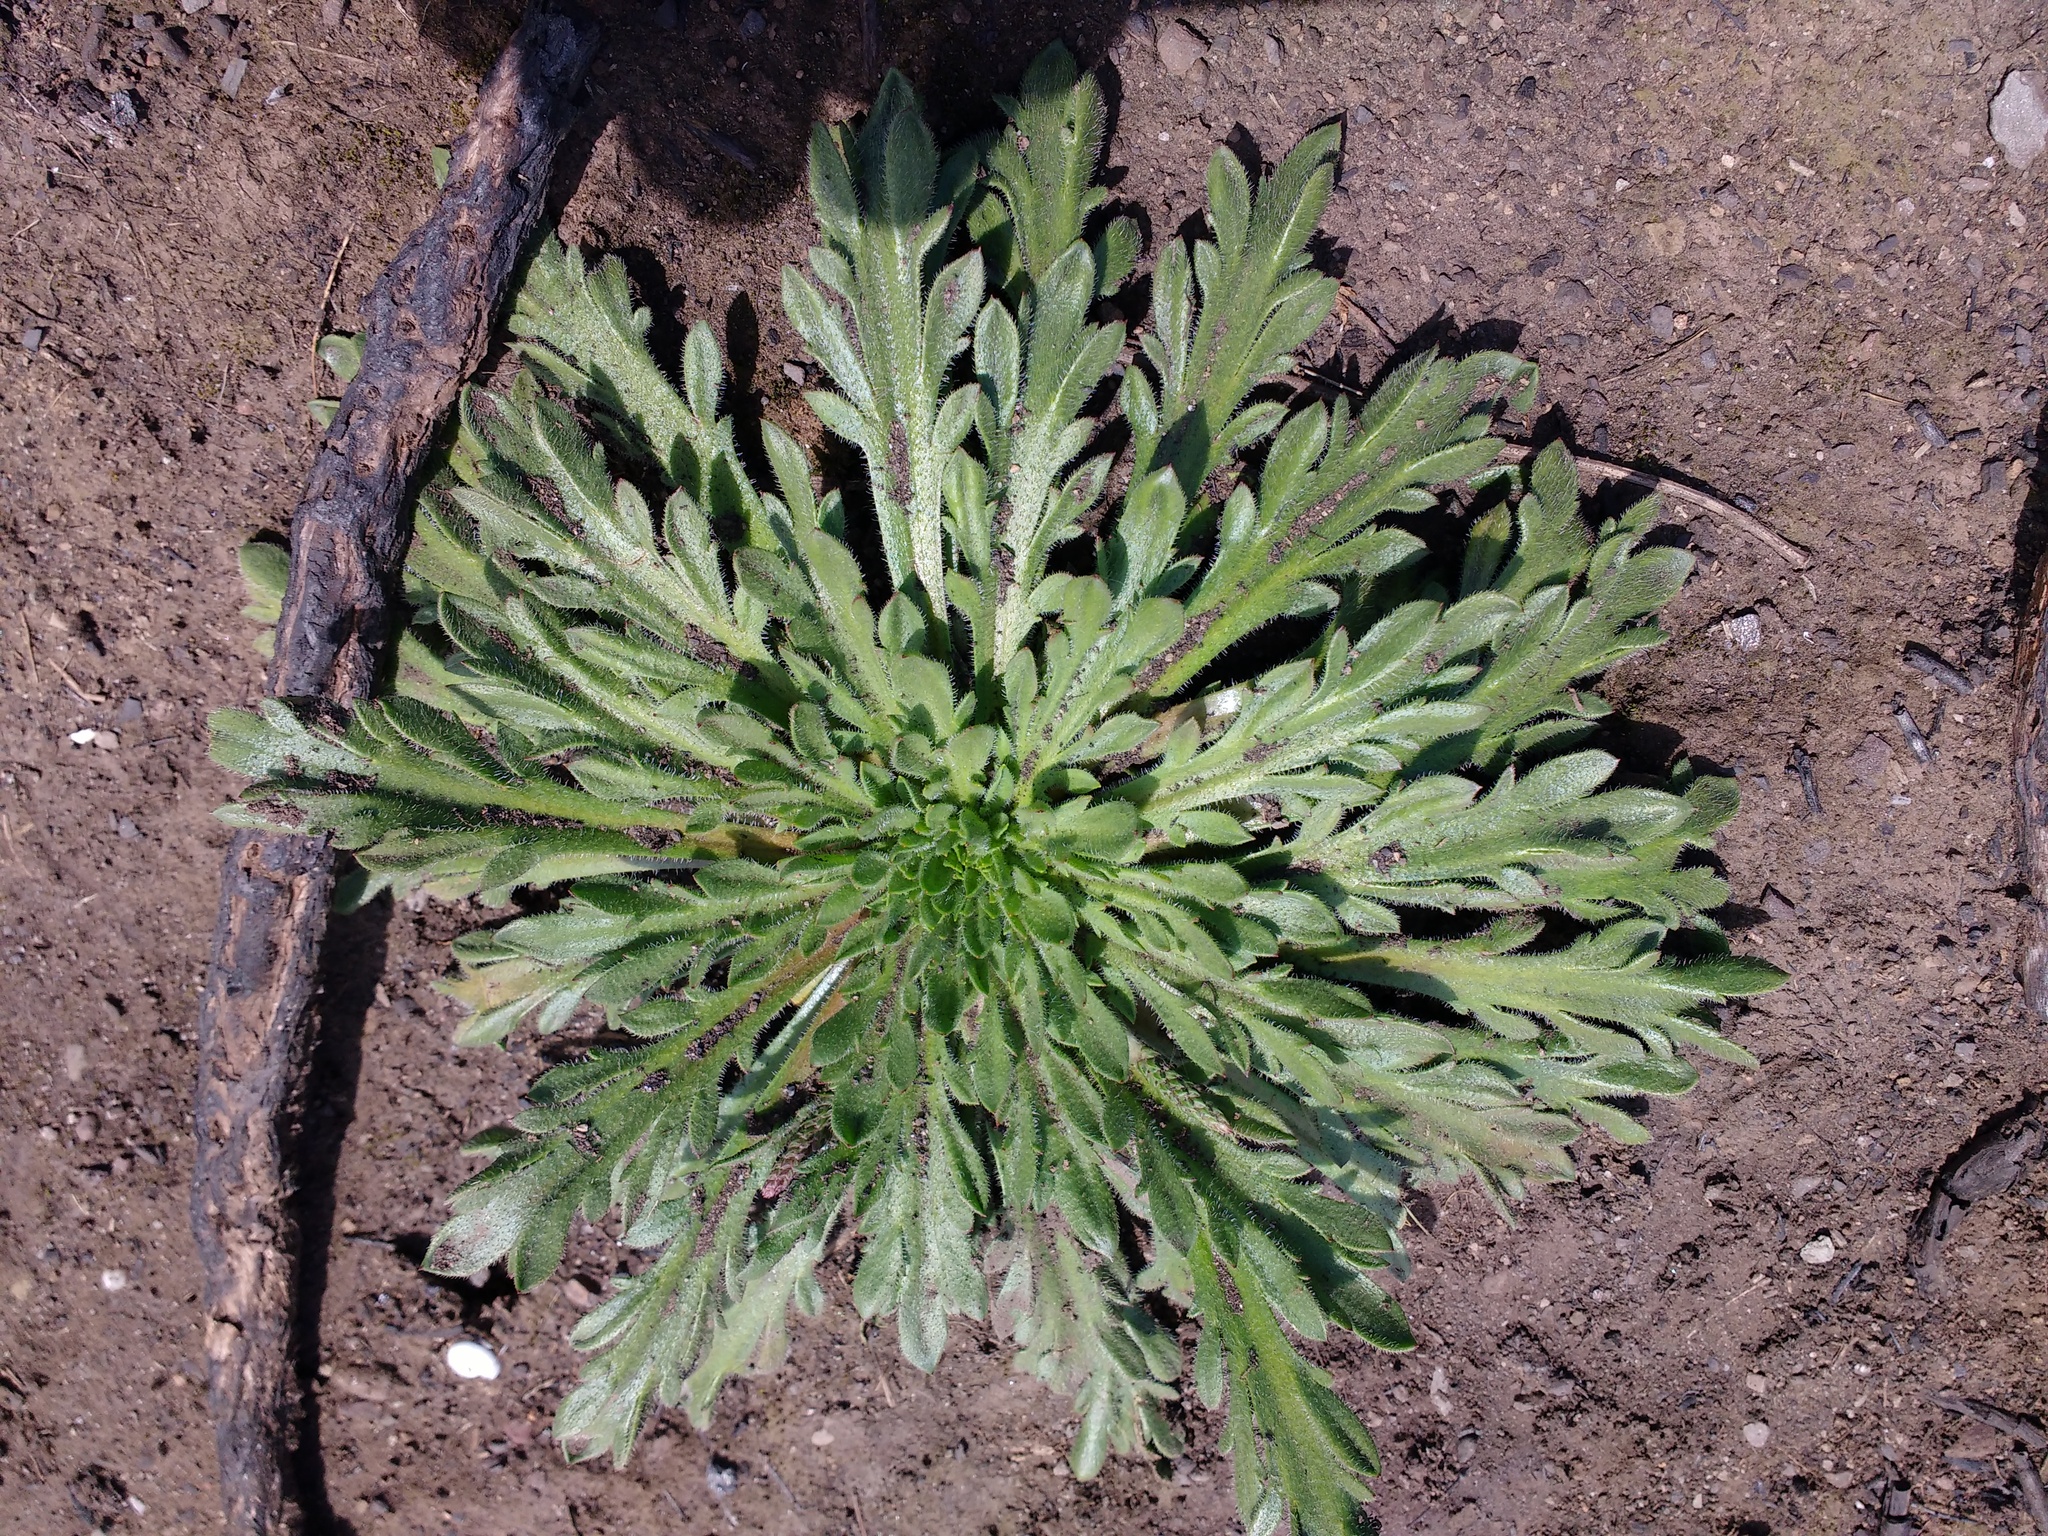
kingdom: Plantae
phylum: Tracheophyta
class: Magnoliopsida
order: Lamiales
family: Plantaginaceae
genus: Plantago
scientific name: Plantago coronopus
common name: Buck's-horn plantain
